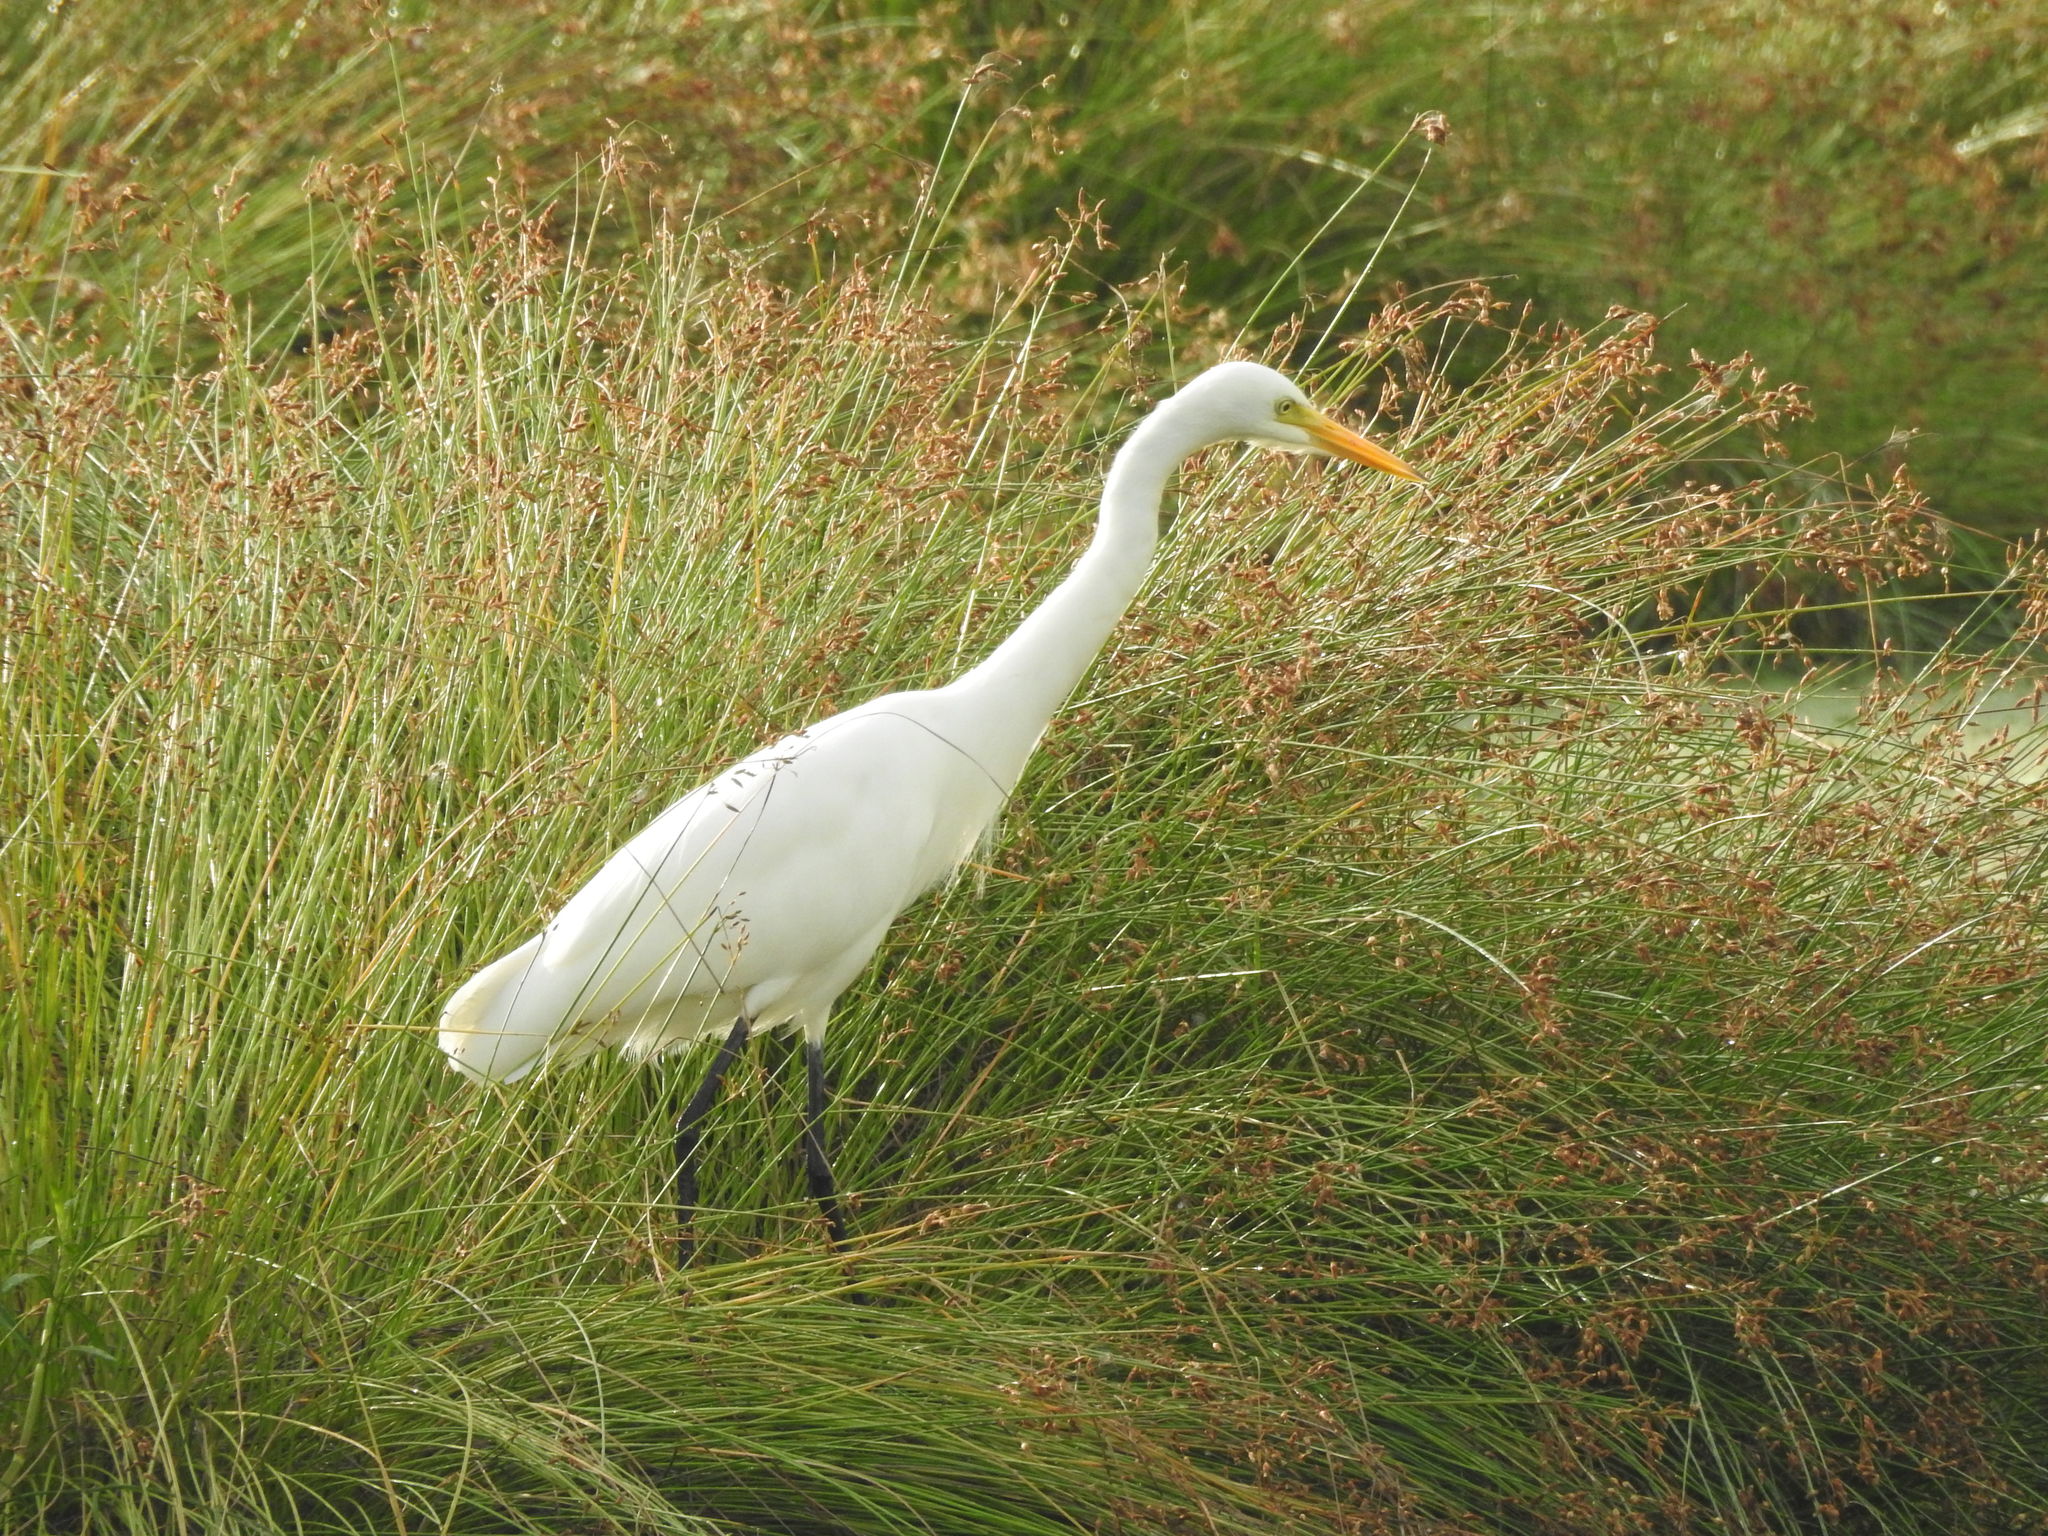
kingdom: Animalia
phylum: Chordata
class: Aves
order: Pelecaniformes
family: Ardeidae
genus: Egretta
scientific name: Egretta intermedia
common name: Intermediate egret
